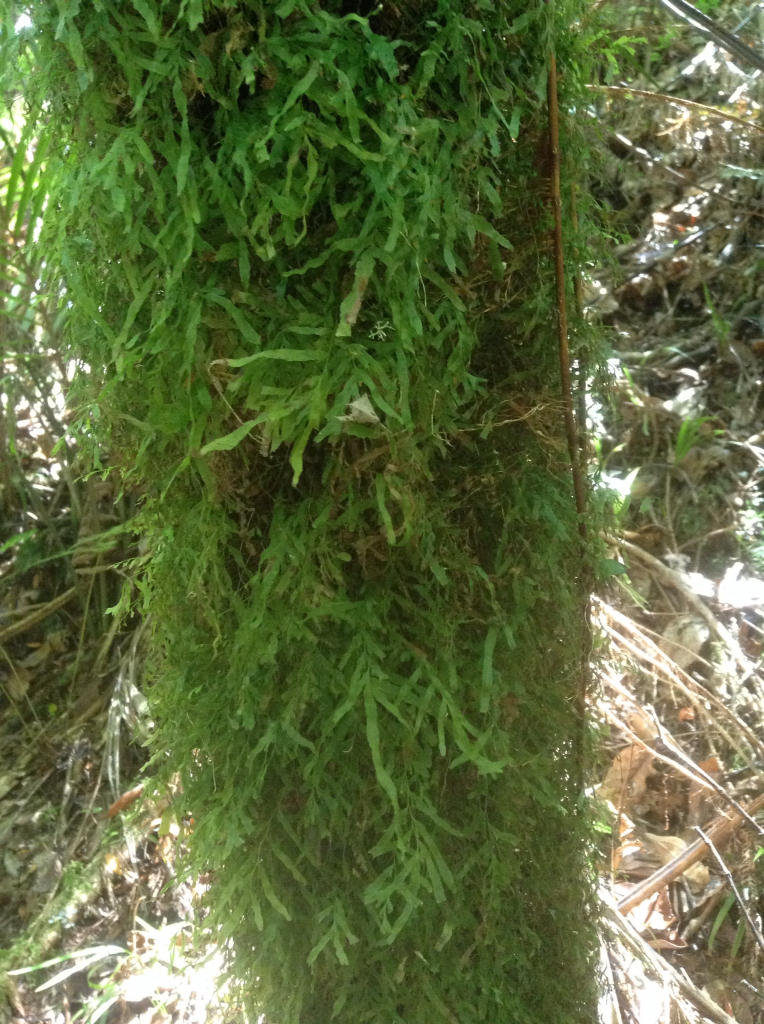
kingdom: Plantae
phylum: Tracheophyta
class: Polypodiopsida
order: Hymenophyllales
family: Hymenophyllaceae
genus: Polyphlebium
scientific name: Polyphlebium venosum
